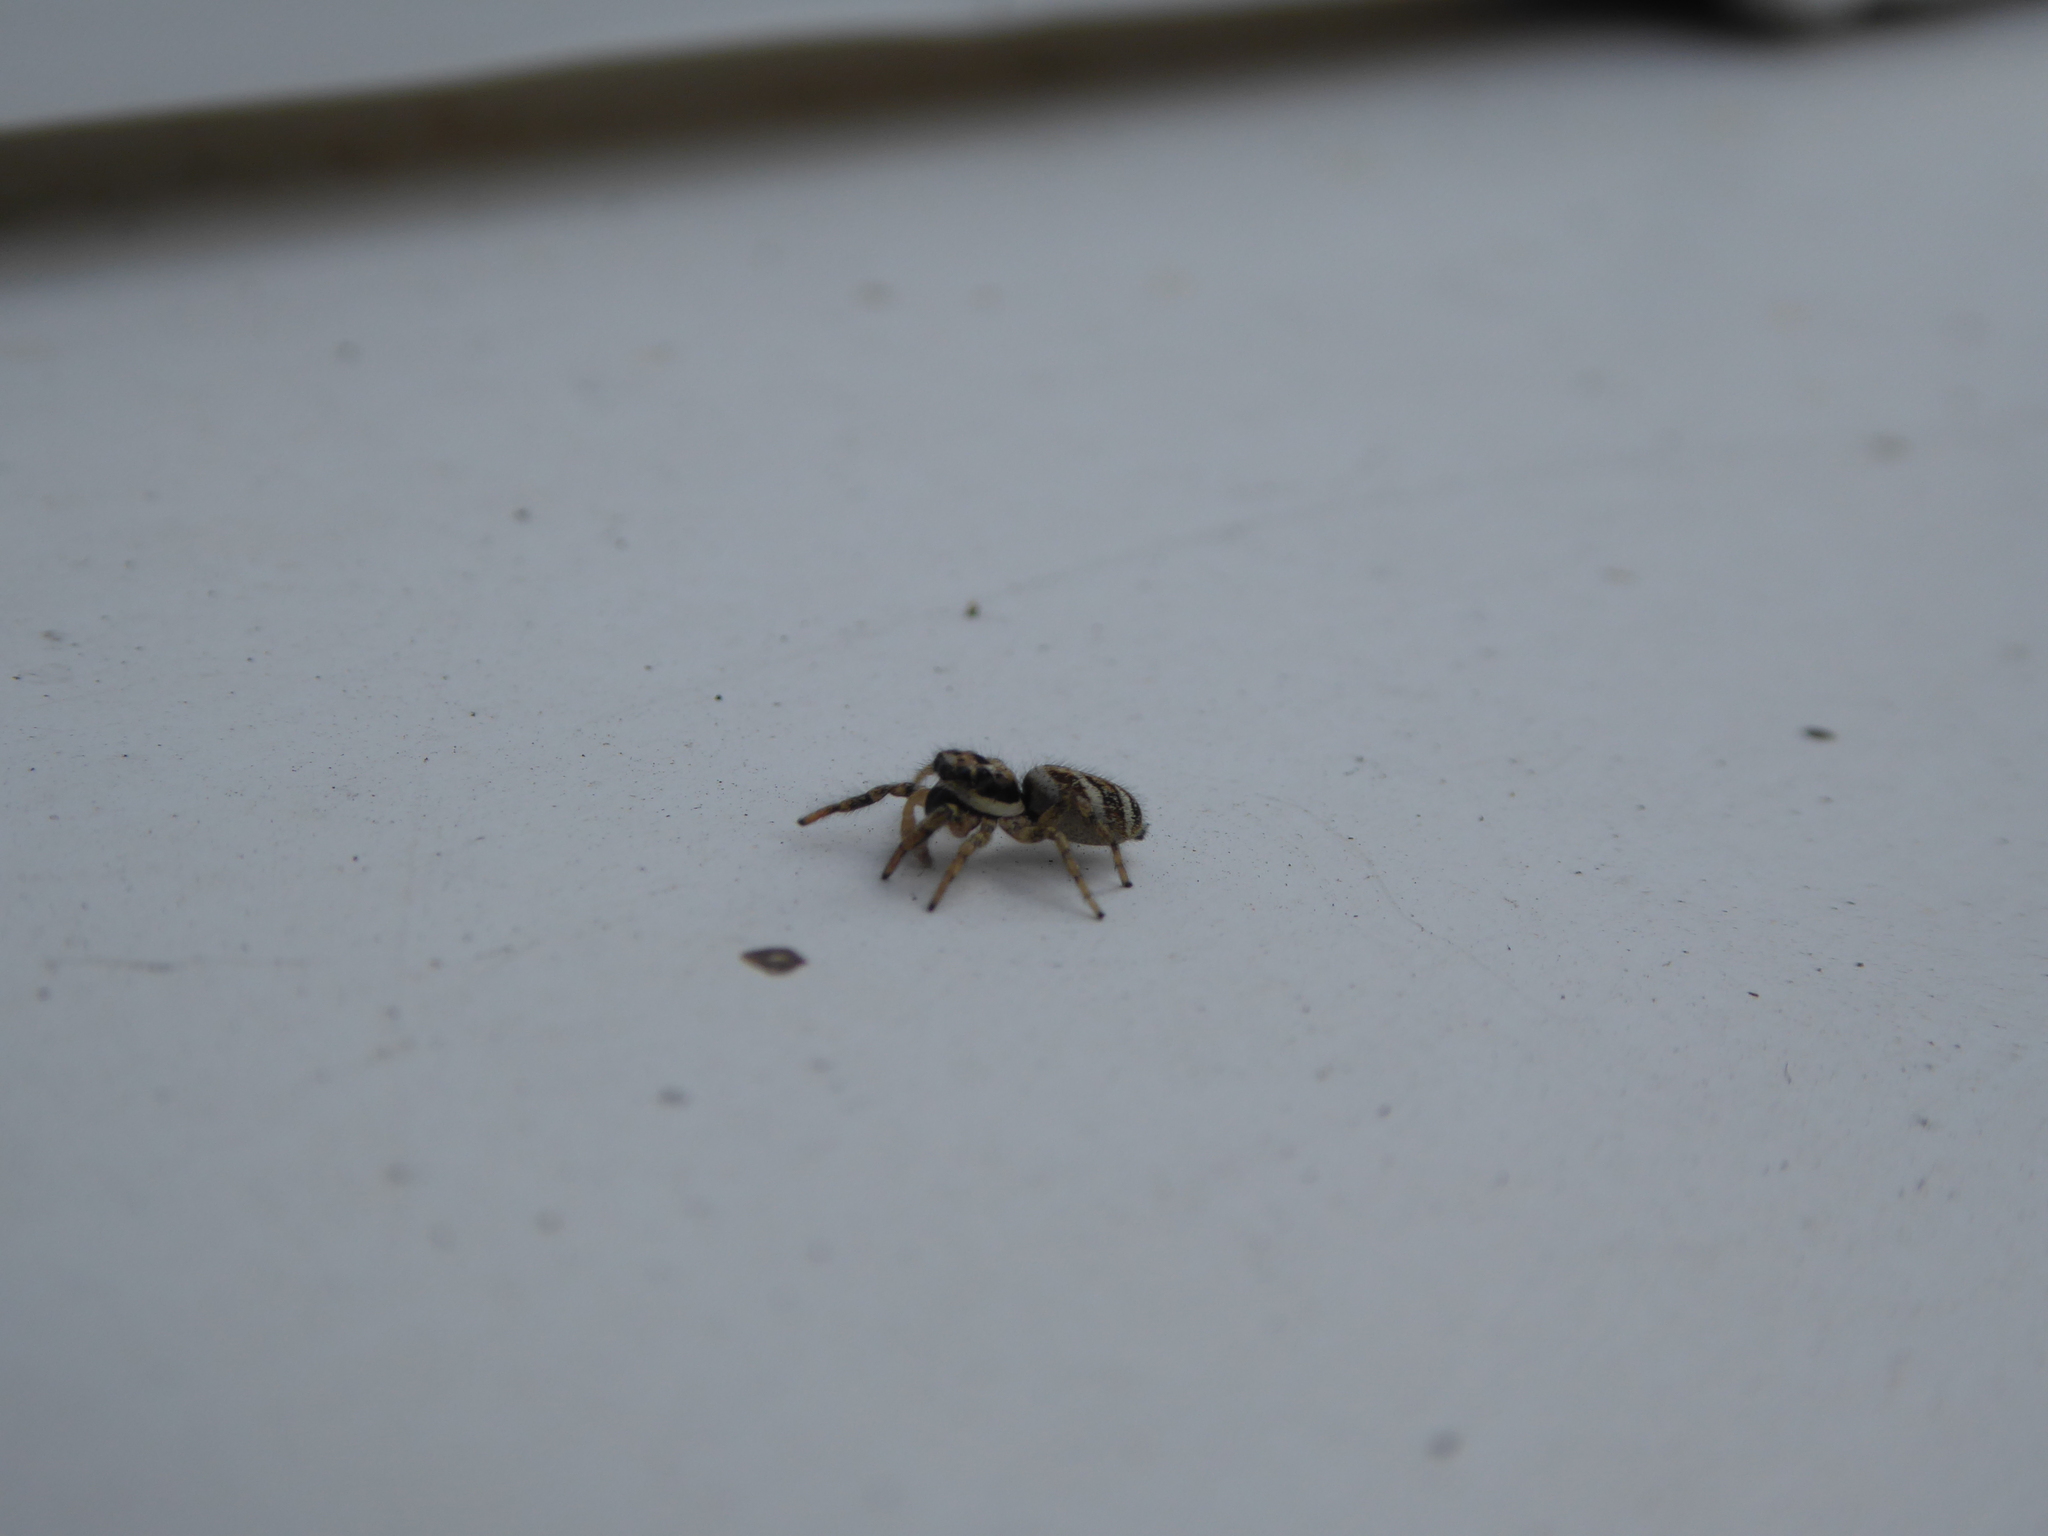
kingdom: Animalia
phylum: Arthropoda
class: Arachnida
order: Araneae
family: Salticidae
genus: Salticus
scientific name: Salticus scenicus
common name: Zebra jumper
